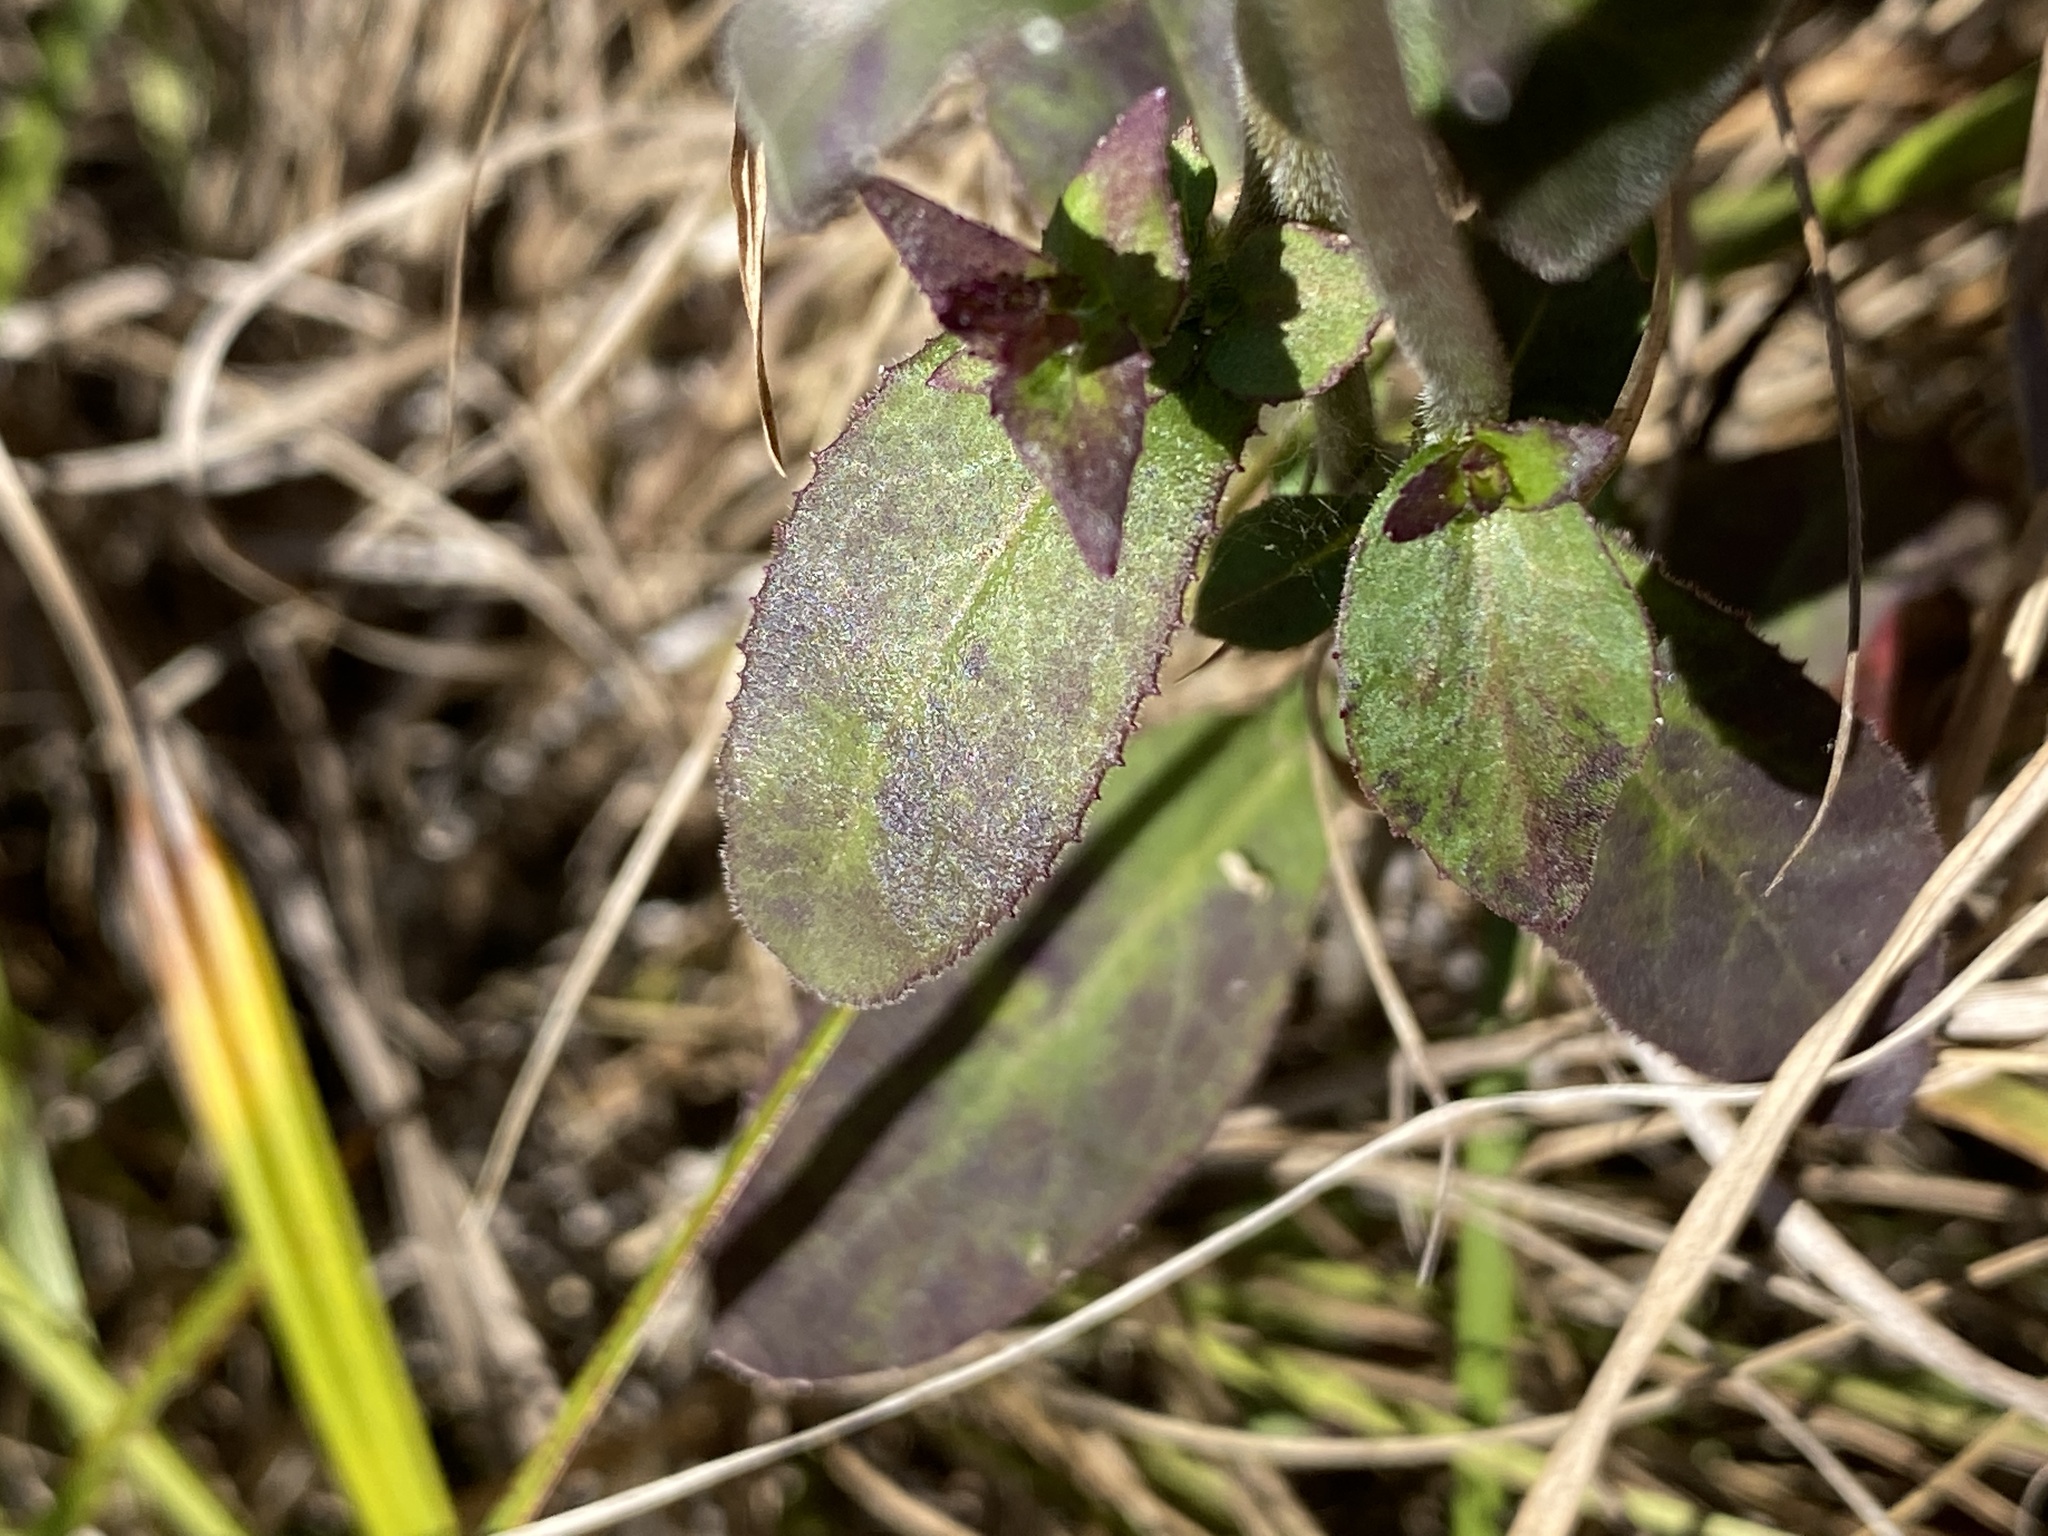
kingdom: Plantae
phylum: Tracheophyta
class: Magnoliopsida
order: Asterales
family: Campanulaceae
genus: Lobelia
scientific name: Lobelia puberula
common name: Purple dewdrop
